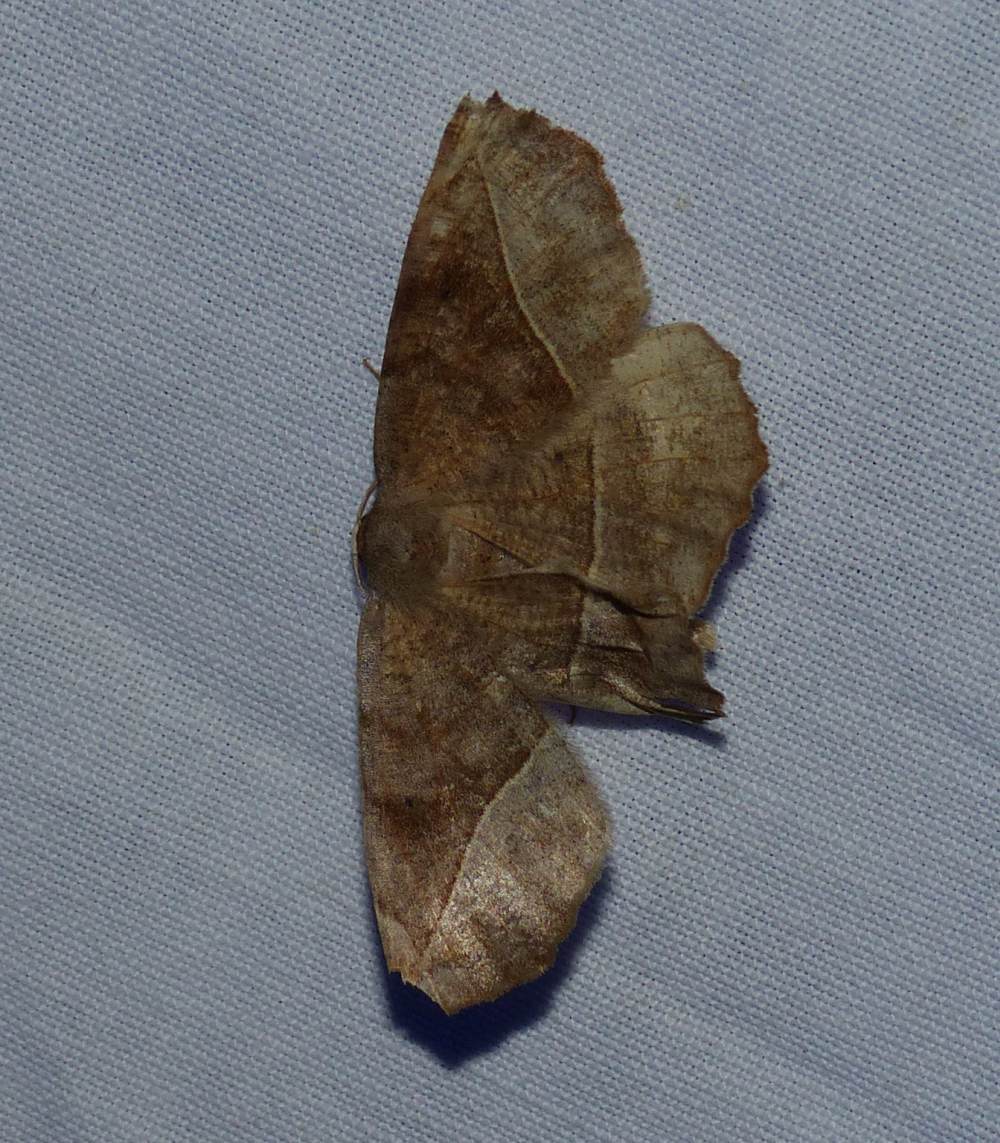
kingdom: Animalia
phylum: Arthropoda
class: Insecta
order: Lepidoptera
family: Geometridae
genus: Eutrapela
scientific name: Eutrapela clemataria
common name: Curved-toothed geometer
